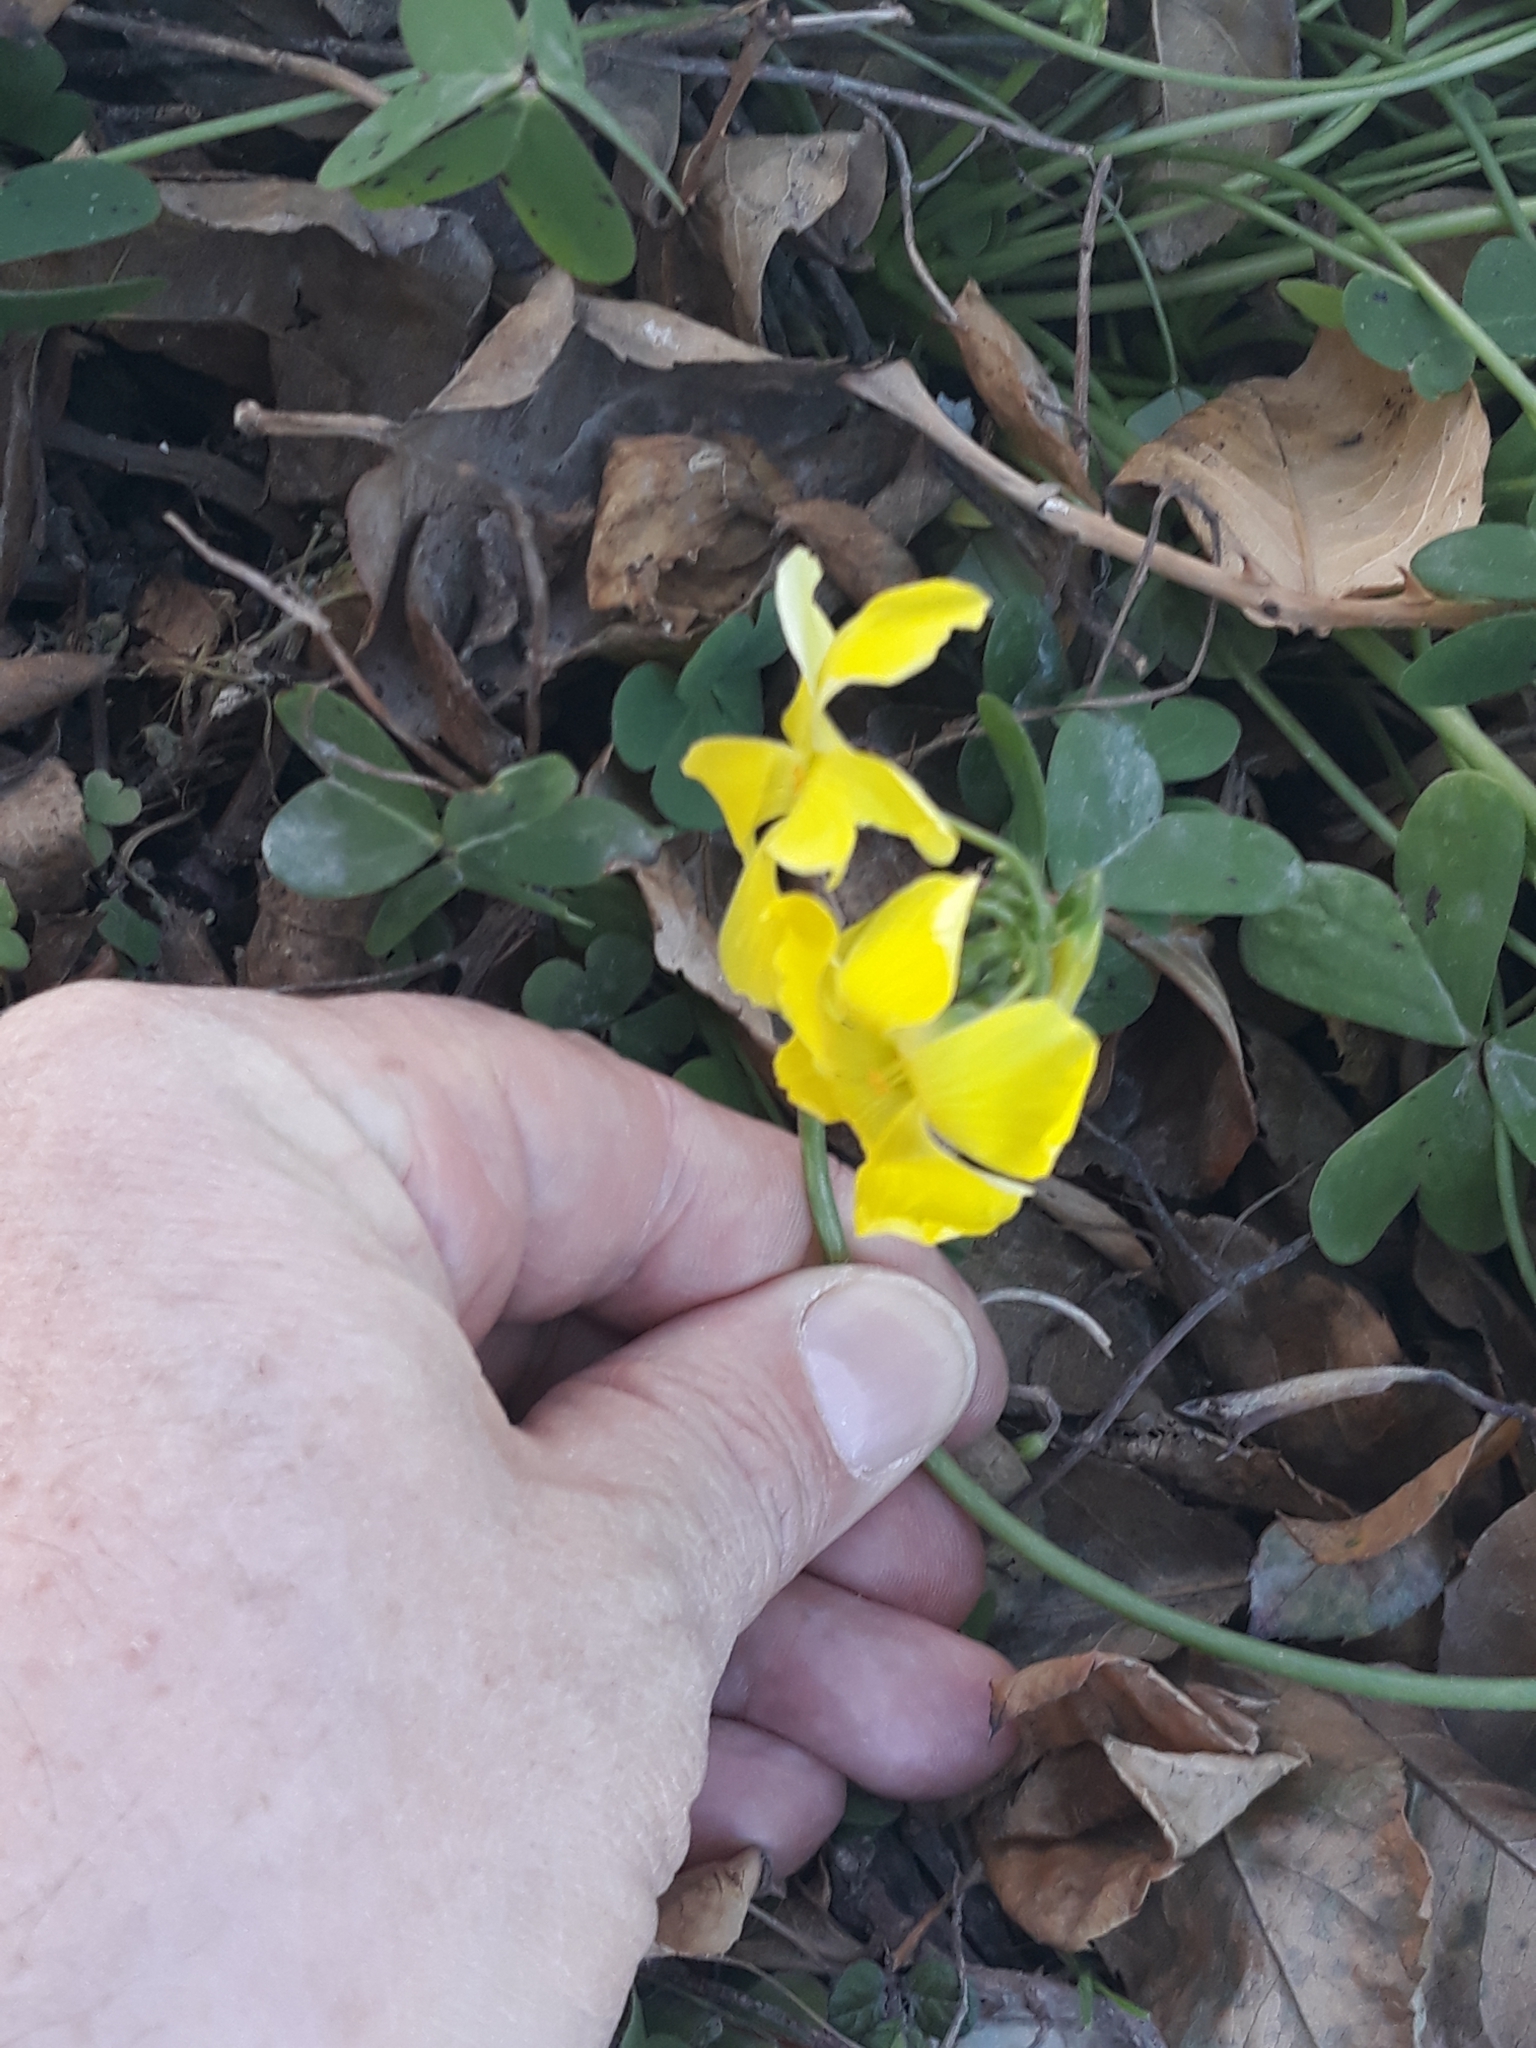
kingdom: Plantae
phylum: Tracheophyta
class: Magnoliopsida
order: Oxalidales
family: Oxalidaceae
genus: Oxalis
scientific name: Oxalis pes-caprae
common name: Bermuda-buttercup
